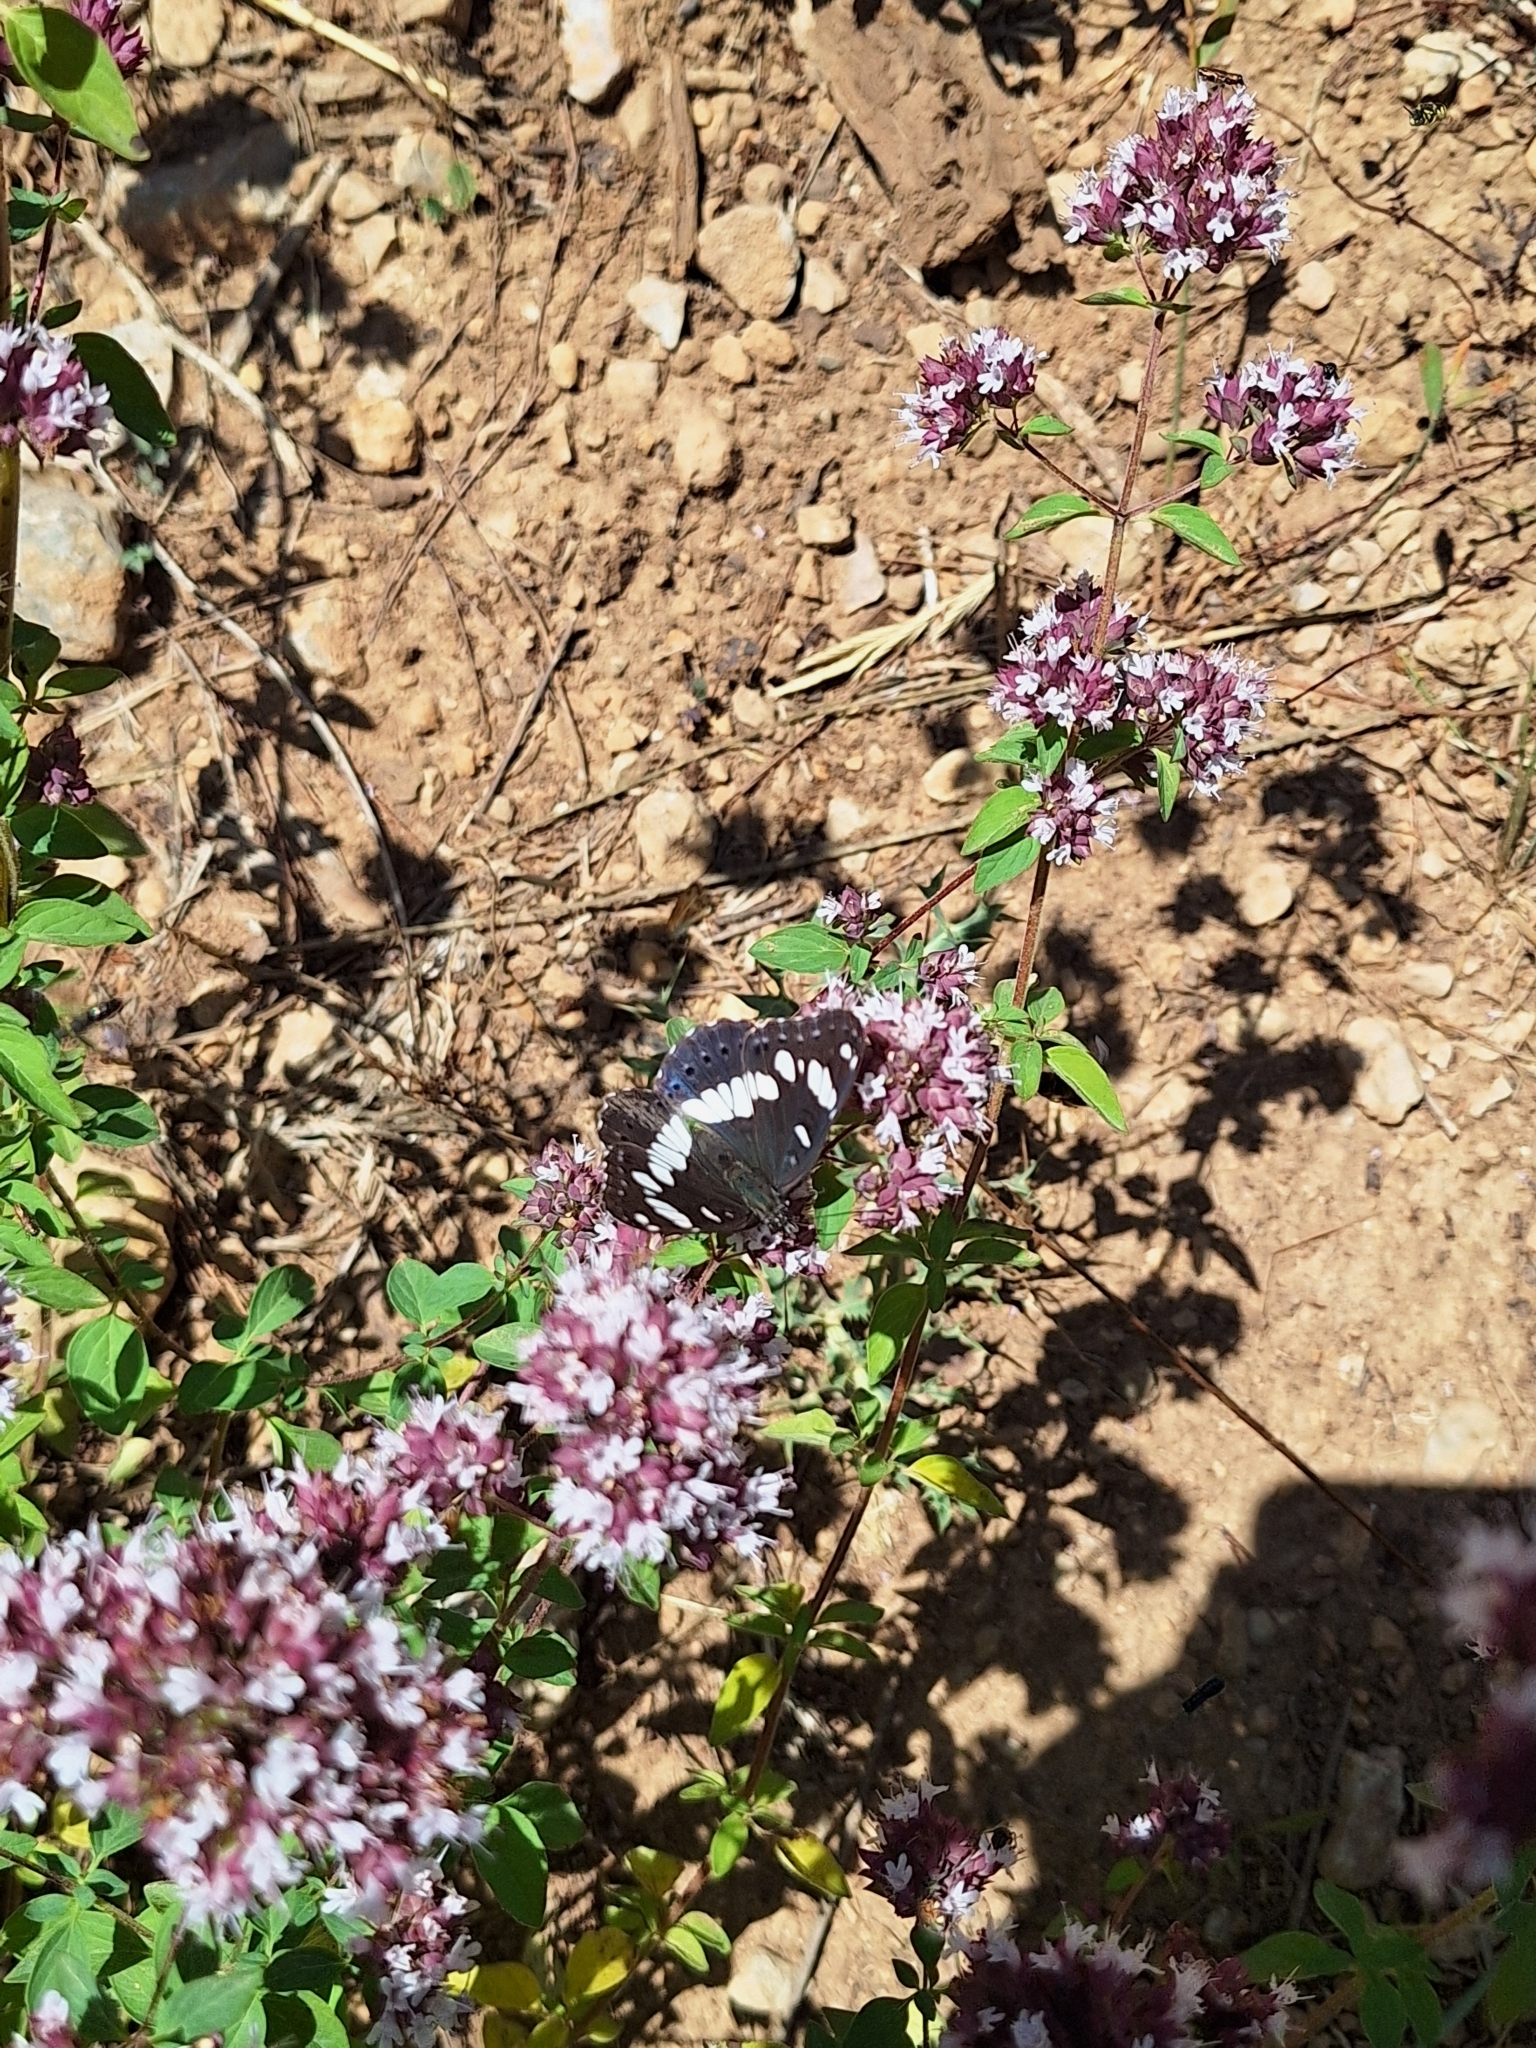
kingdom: Animalia
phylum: Arthropoda
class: Insecta
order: Lepidoptera
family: Nymphalidae
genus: Limenitis
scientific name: Limenitis reducta
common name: Southern white admiral
